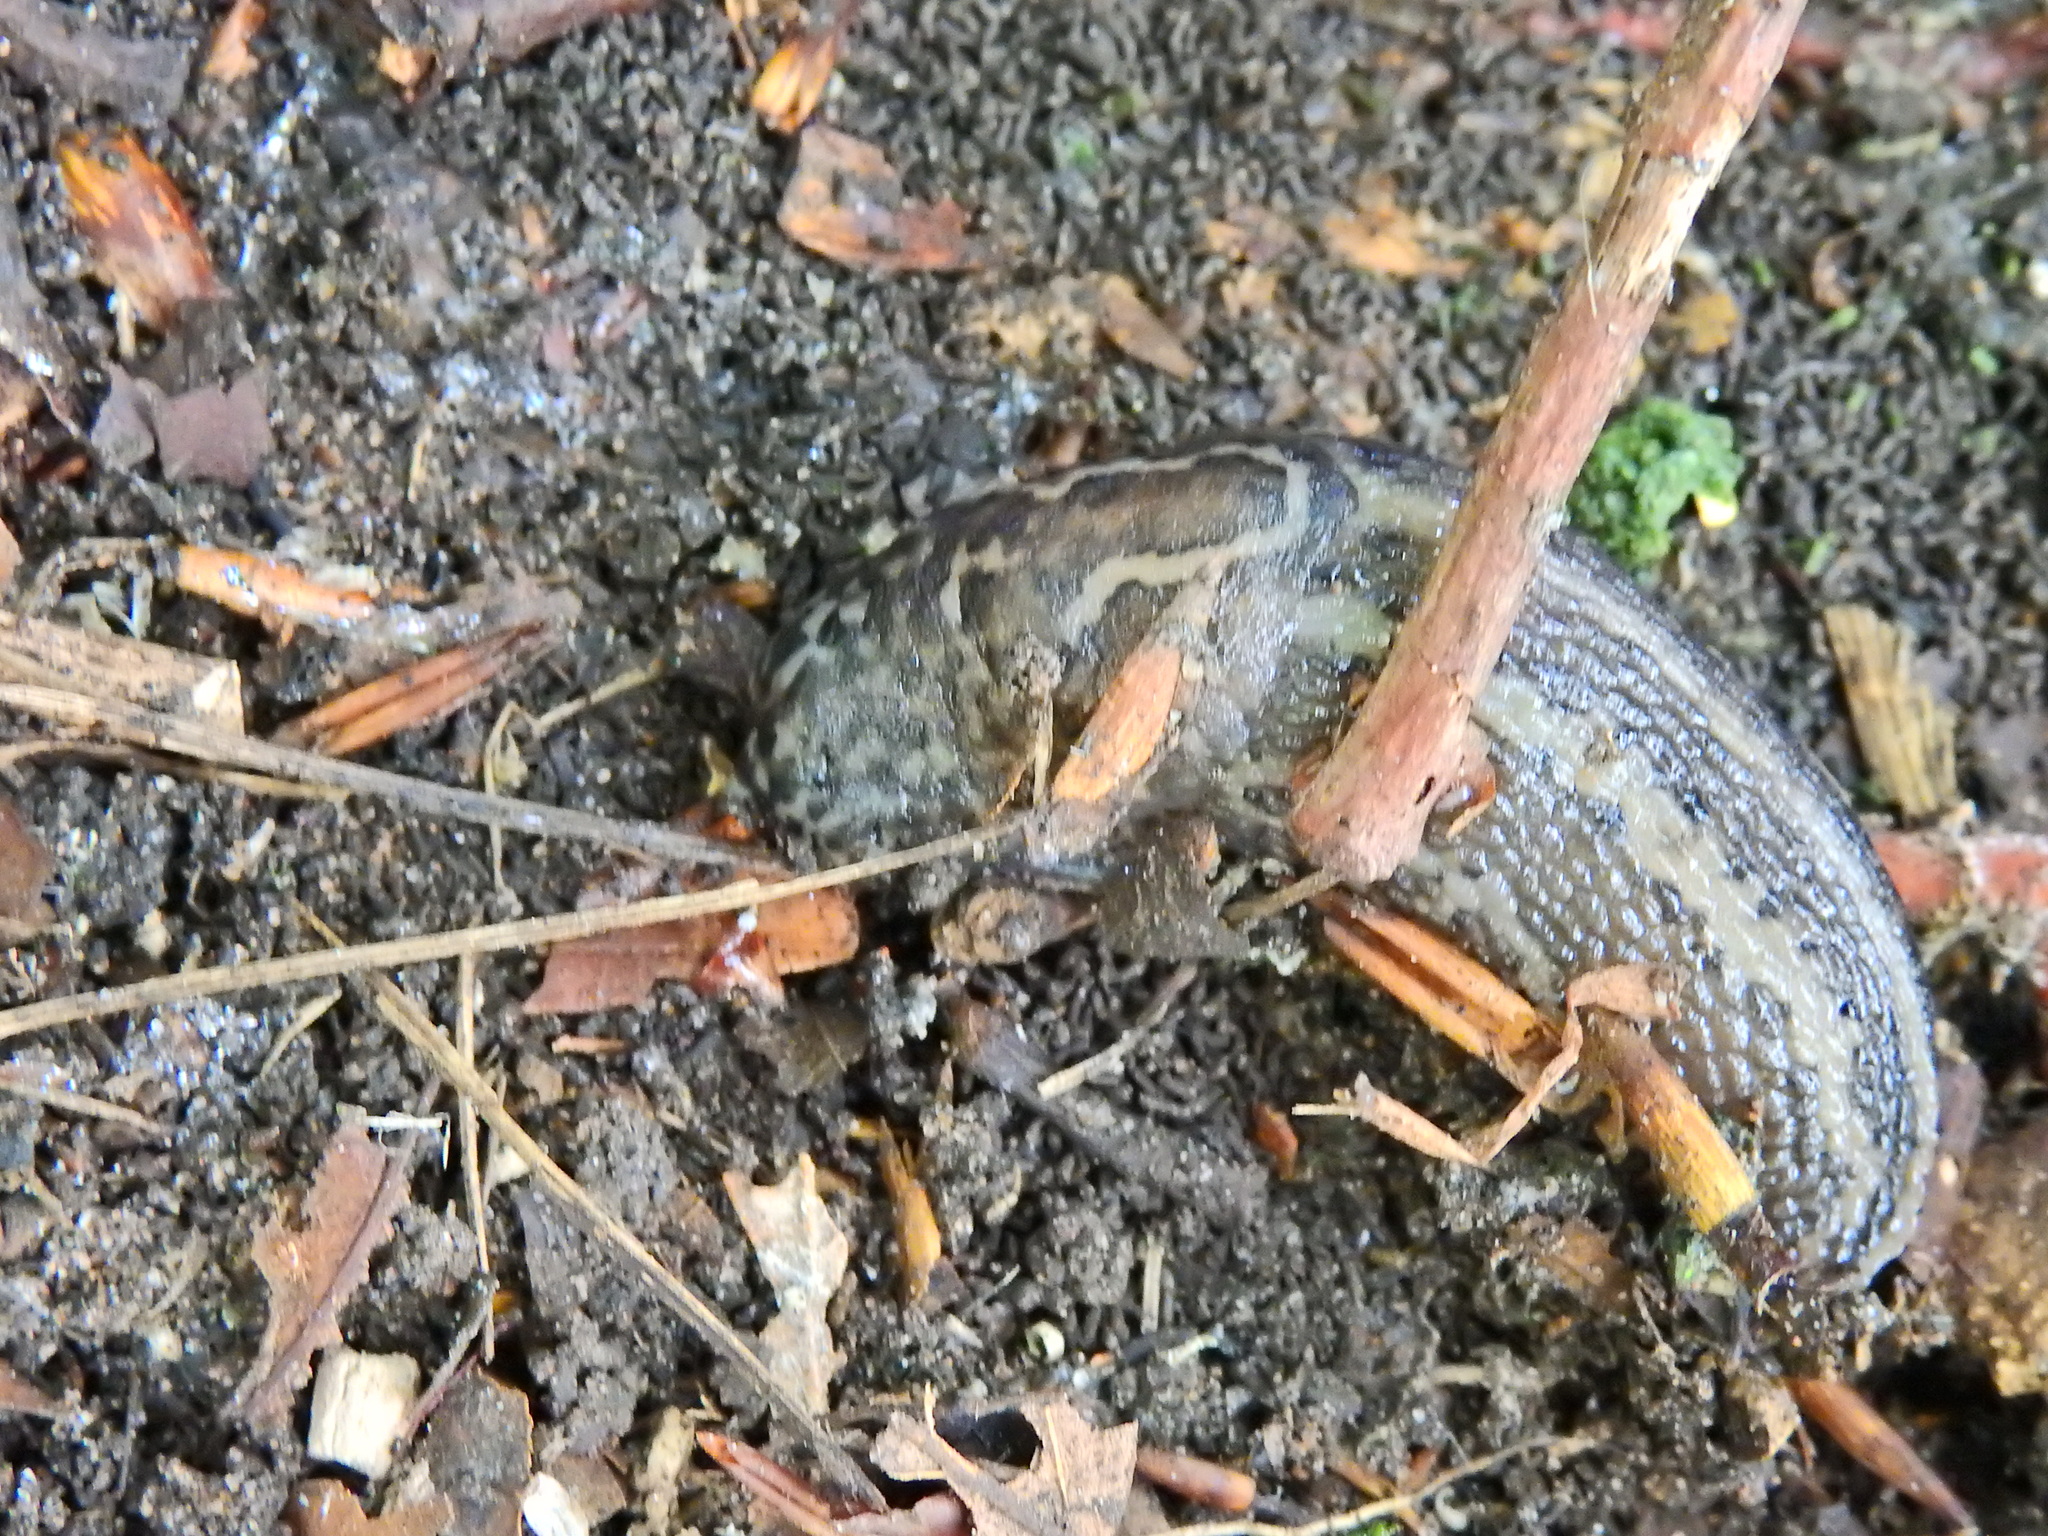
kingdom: Animalia
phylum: Mollusca
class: Gastropoda
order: Stylommatophora
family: Limacidae
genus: Limax
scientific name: Limax maximus
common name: Great grey slug
